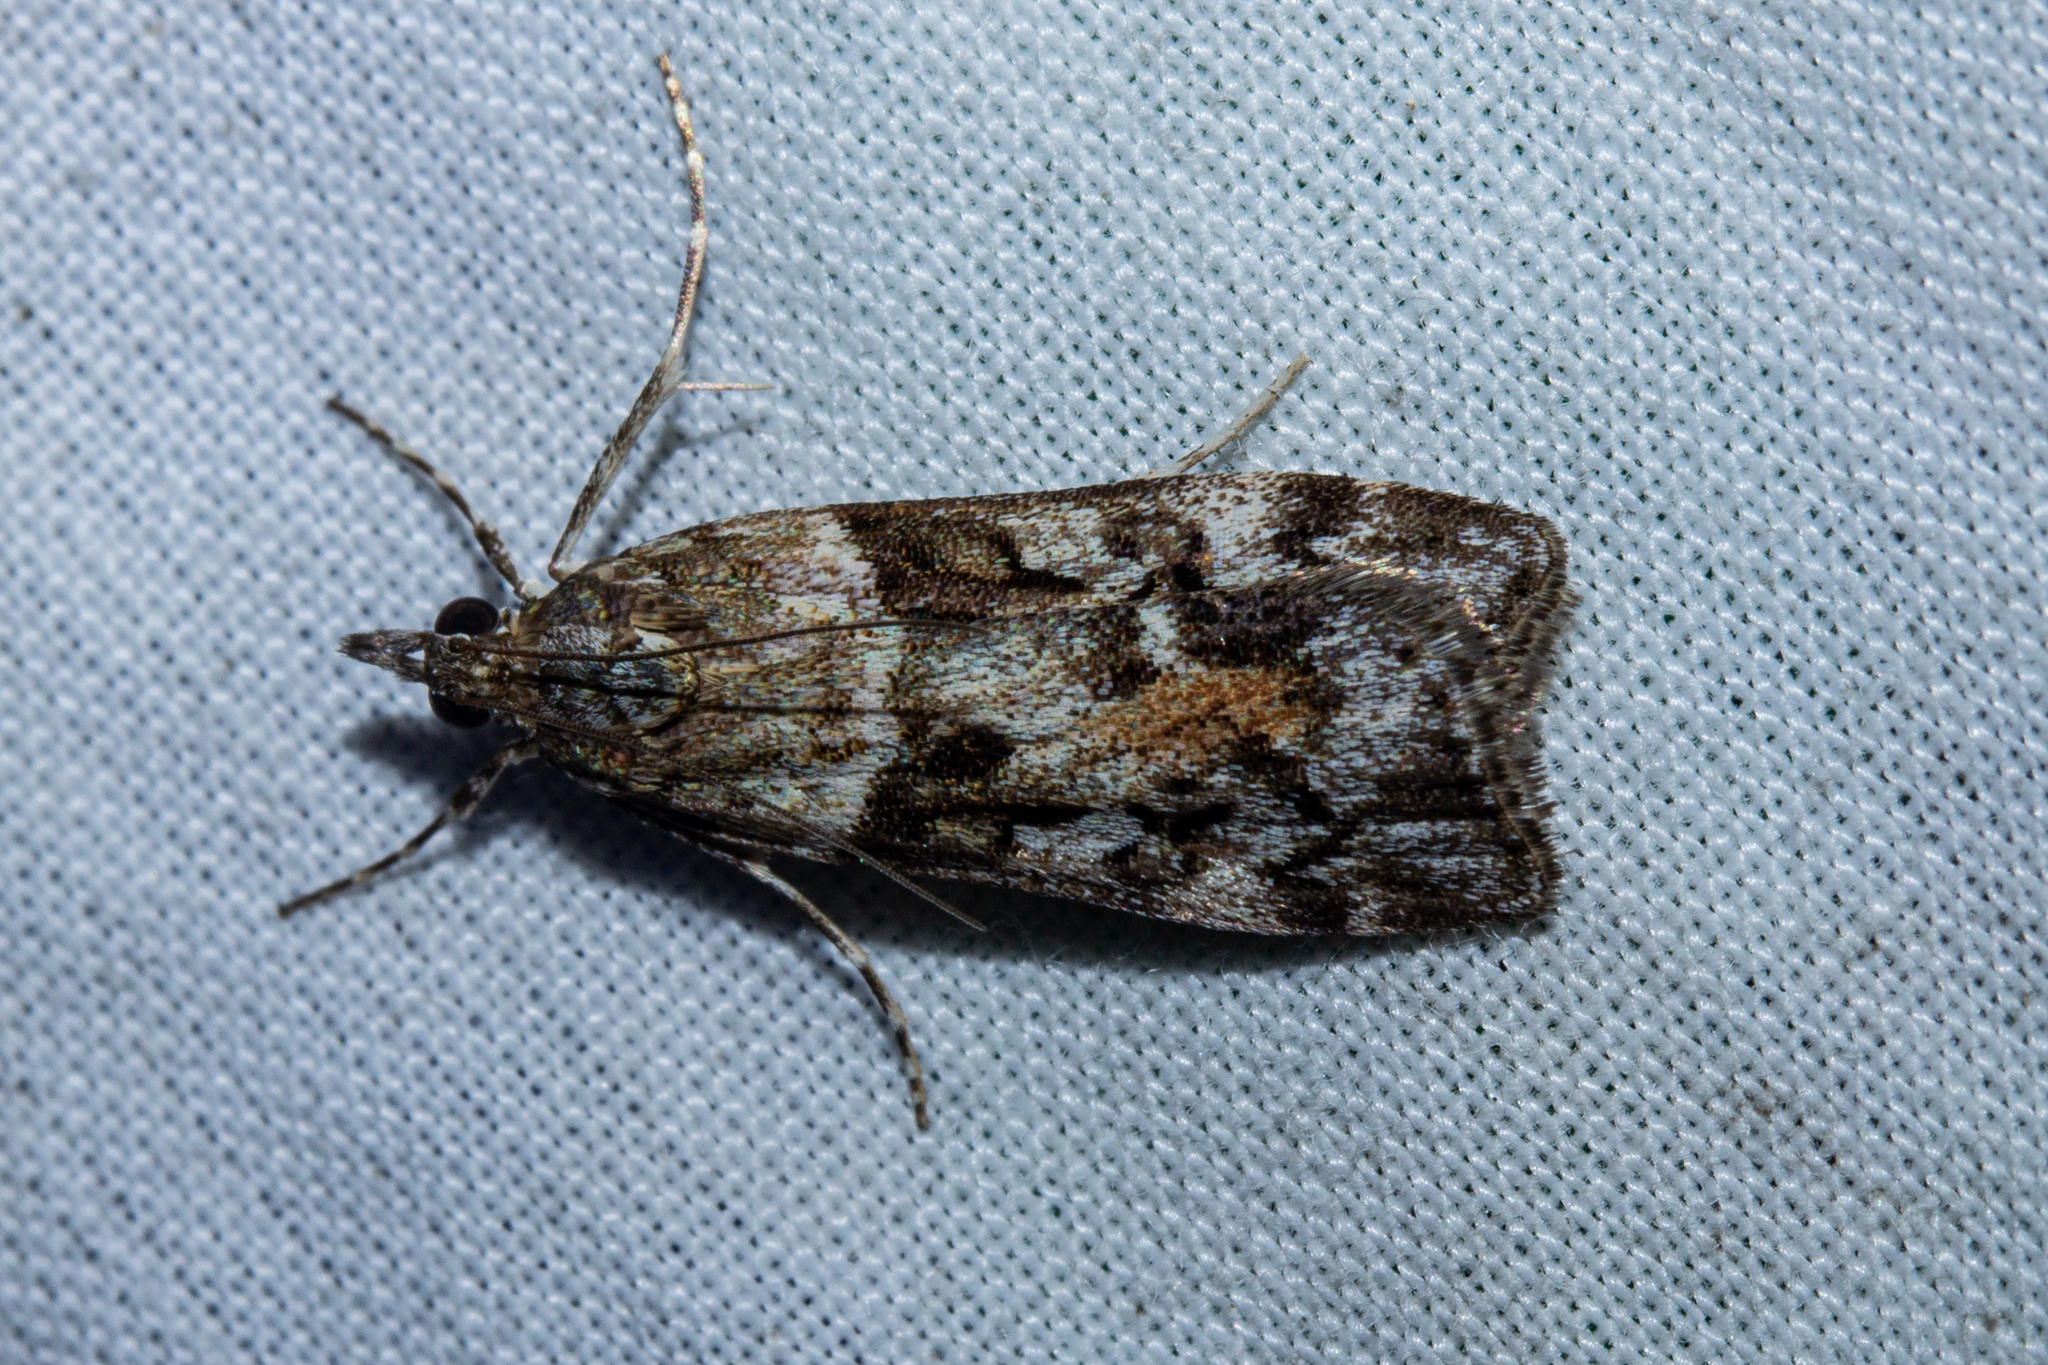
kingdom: Animalia
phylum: Arthropoda
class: Insecta
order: Lepidoptera
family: Crambidae
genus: Eudonia
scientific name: Eudonia submarginalis
